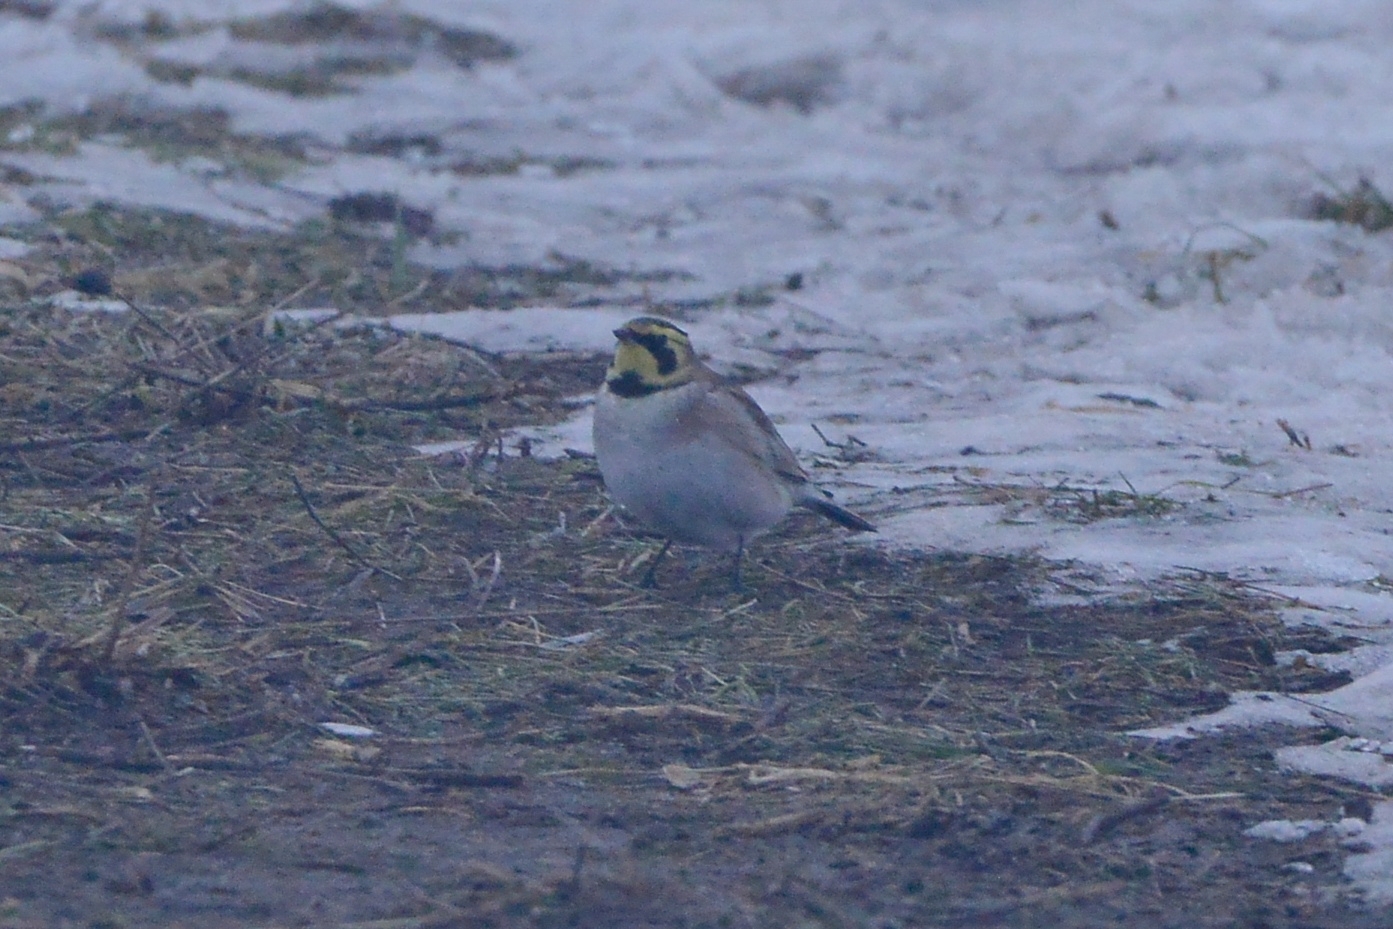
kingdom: Animalia
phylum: Chordata
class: Aves
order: Passeriformes
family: Alaudidae
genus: Eremophila
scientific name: Eremophila alpestris
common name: Horned lark
